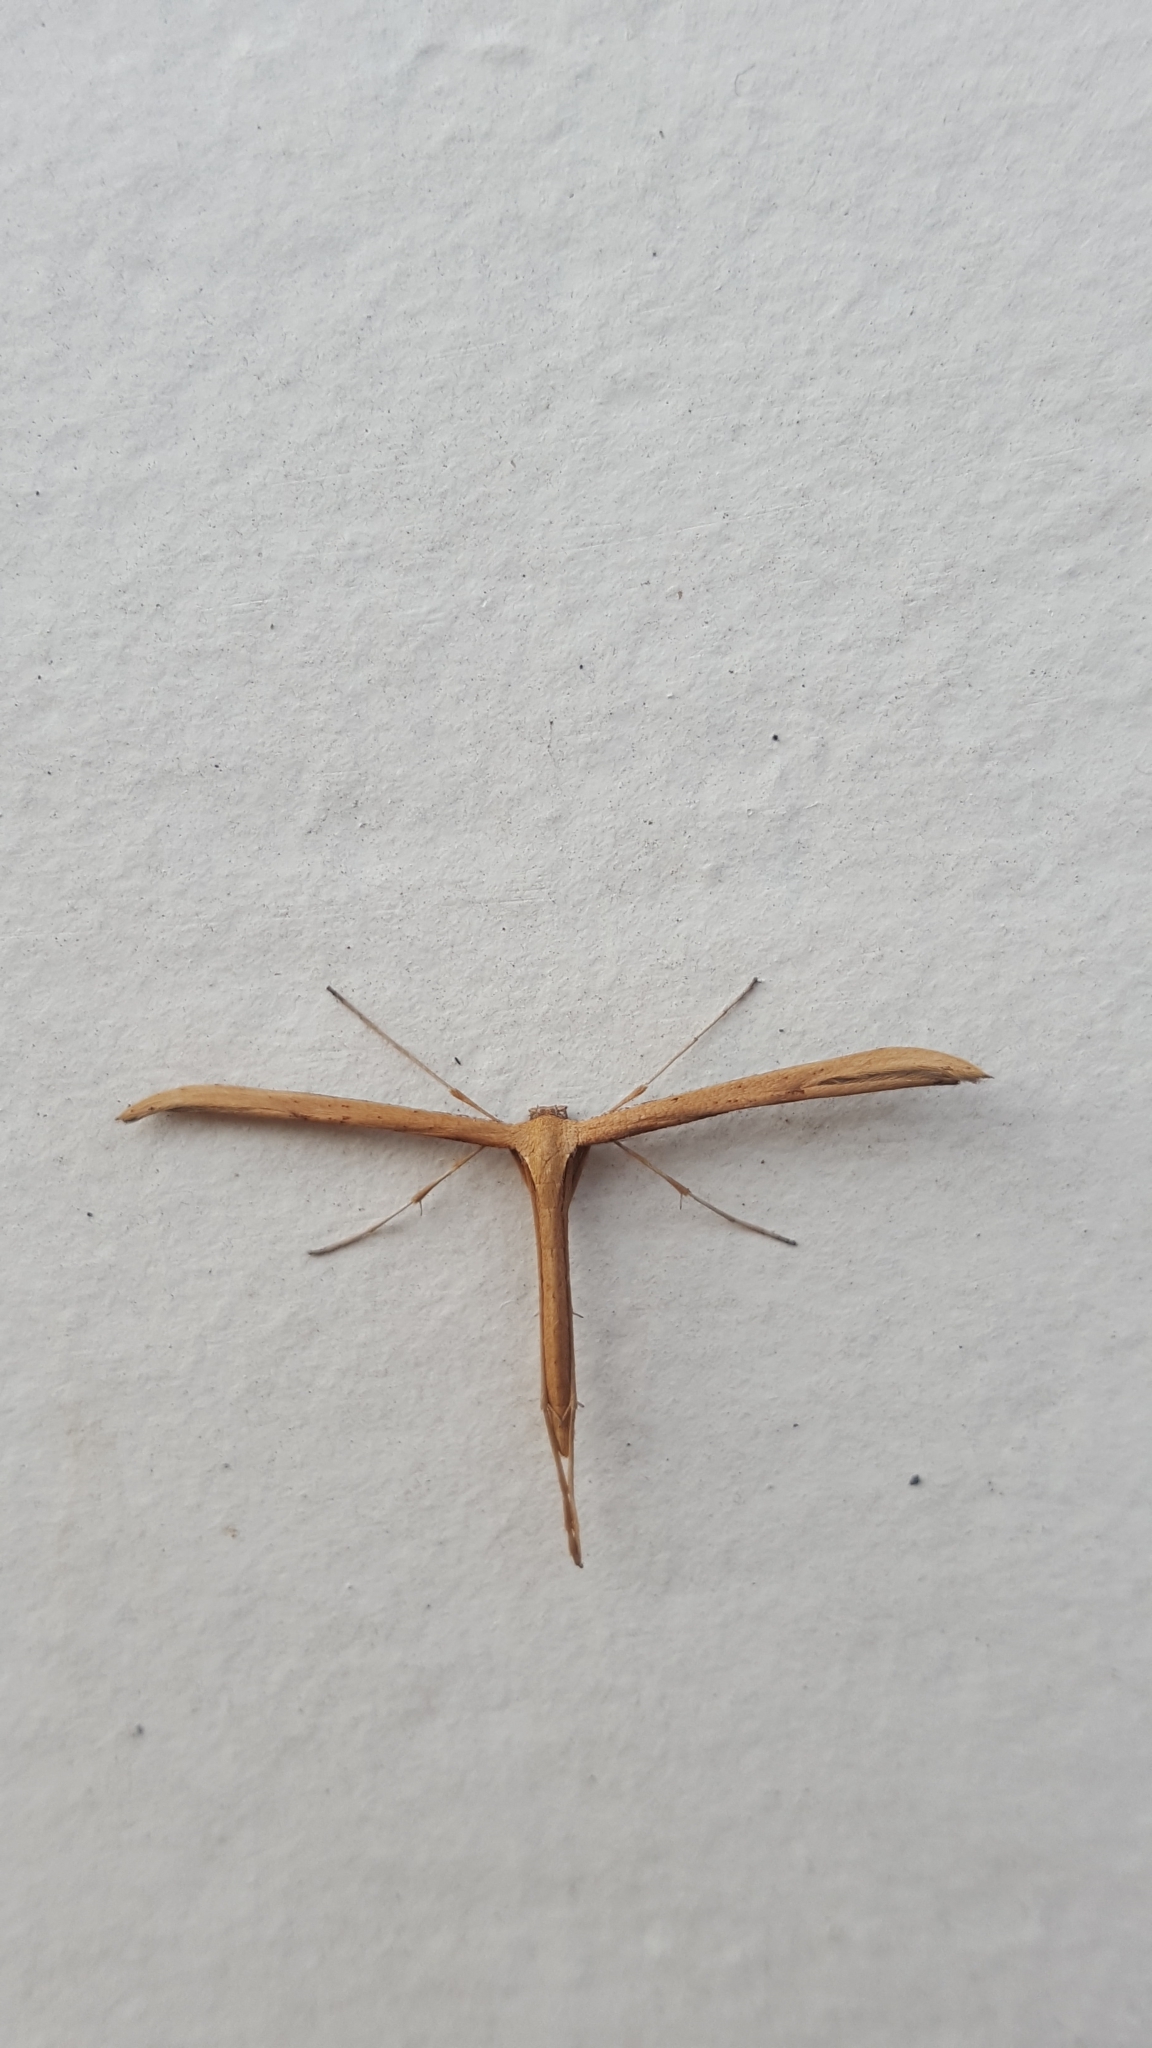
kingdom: Animalia
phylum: Arthropoda
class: Insecta
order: Lepidoptera
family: Pterophoridae
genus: Emmelina
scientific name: Emmelina monodactyla
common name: Common plume
